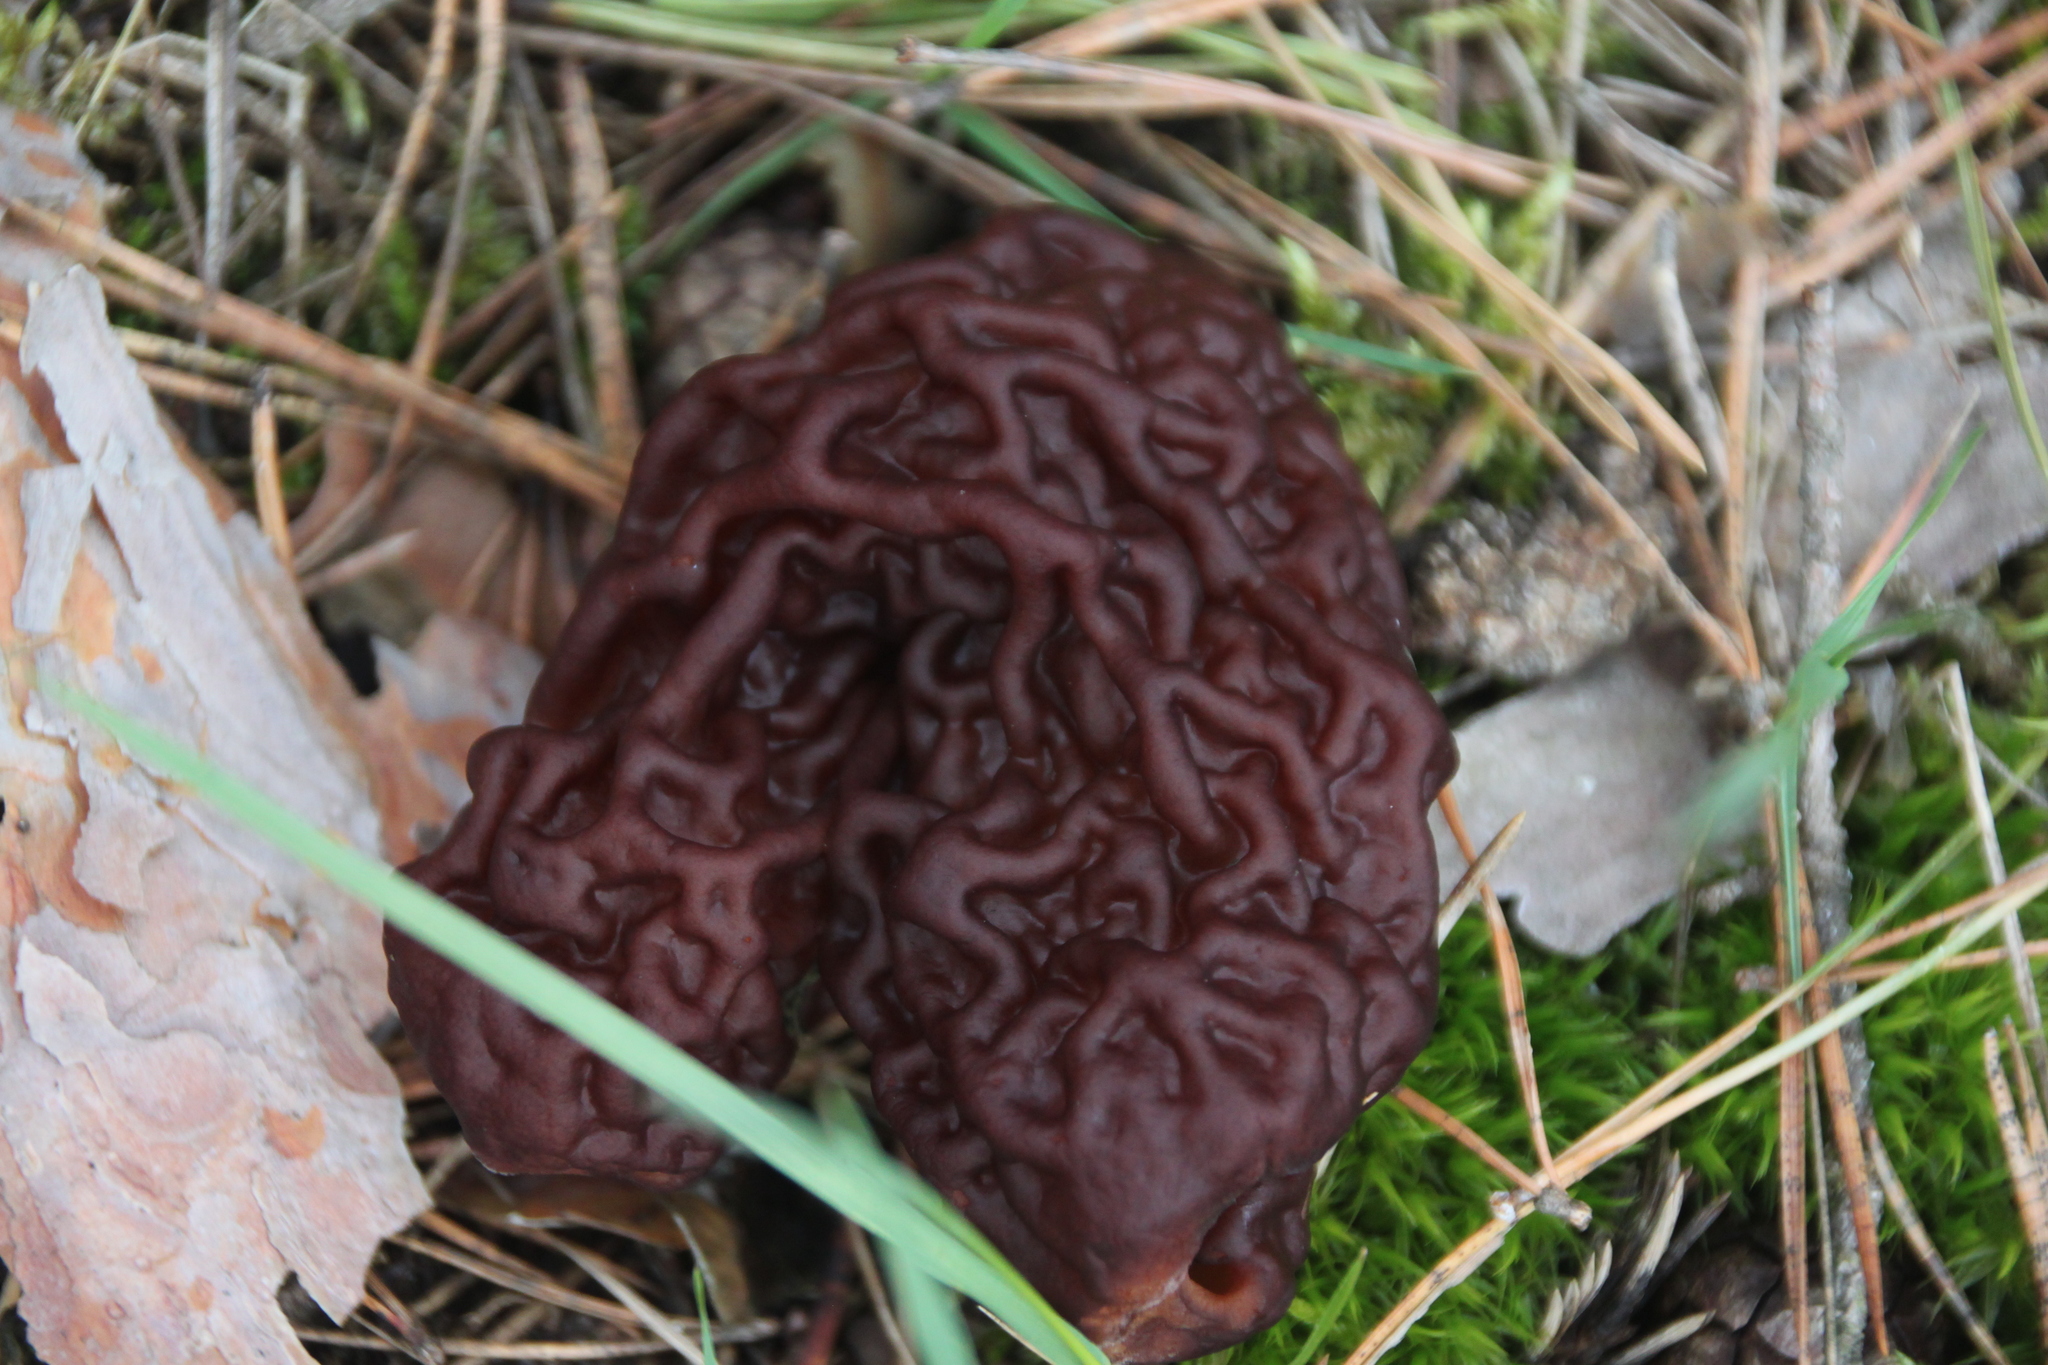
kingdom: Fungi
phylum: Ascomycota
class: Pezizomycetes
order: Pezizales
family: Discinaceae
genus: Gyromitra
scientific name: Gyromitra esculenta
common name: False morel
